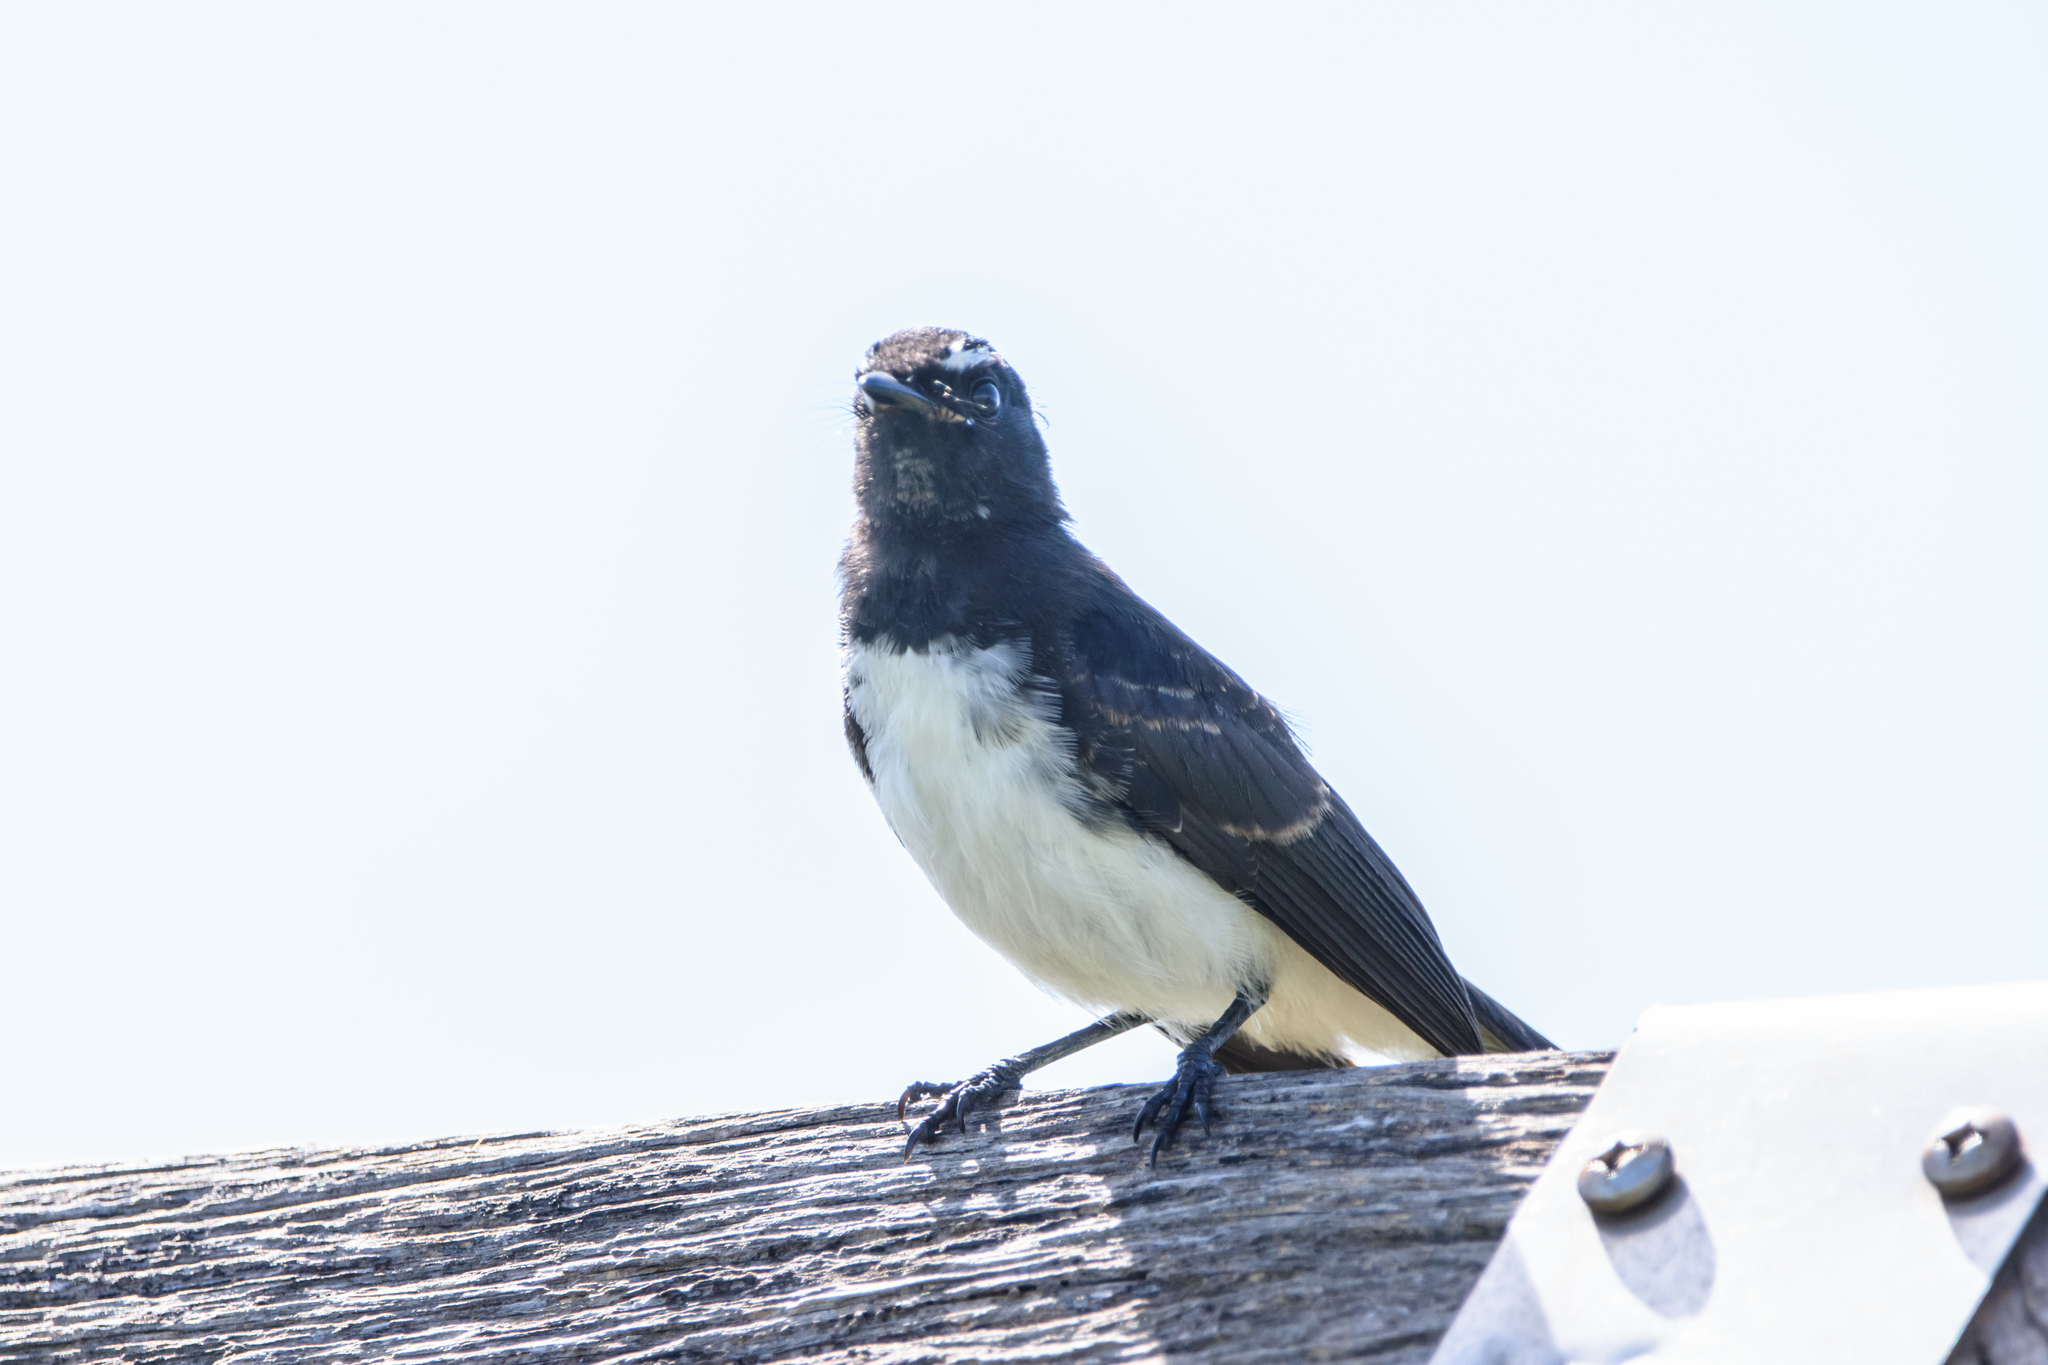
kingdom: Animalia
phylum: Chordata
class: Aves
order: Passeriformes
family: Rhipiduridae
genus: Rhipidura
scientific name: Rhipidura leucophrys
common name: Willie wagtail
